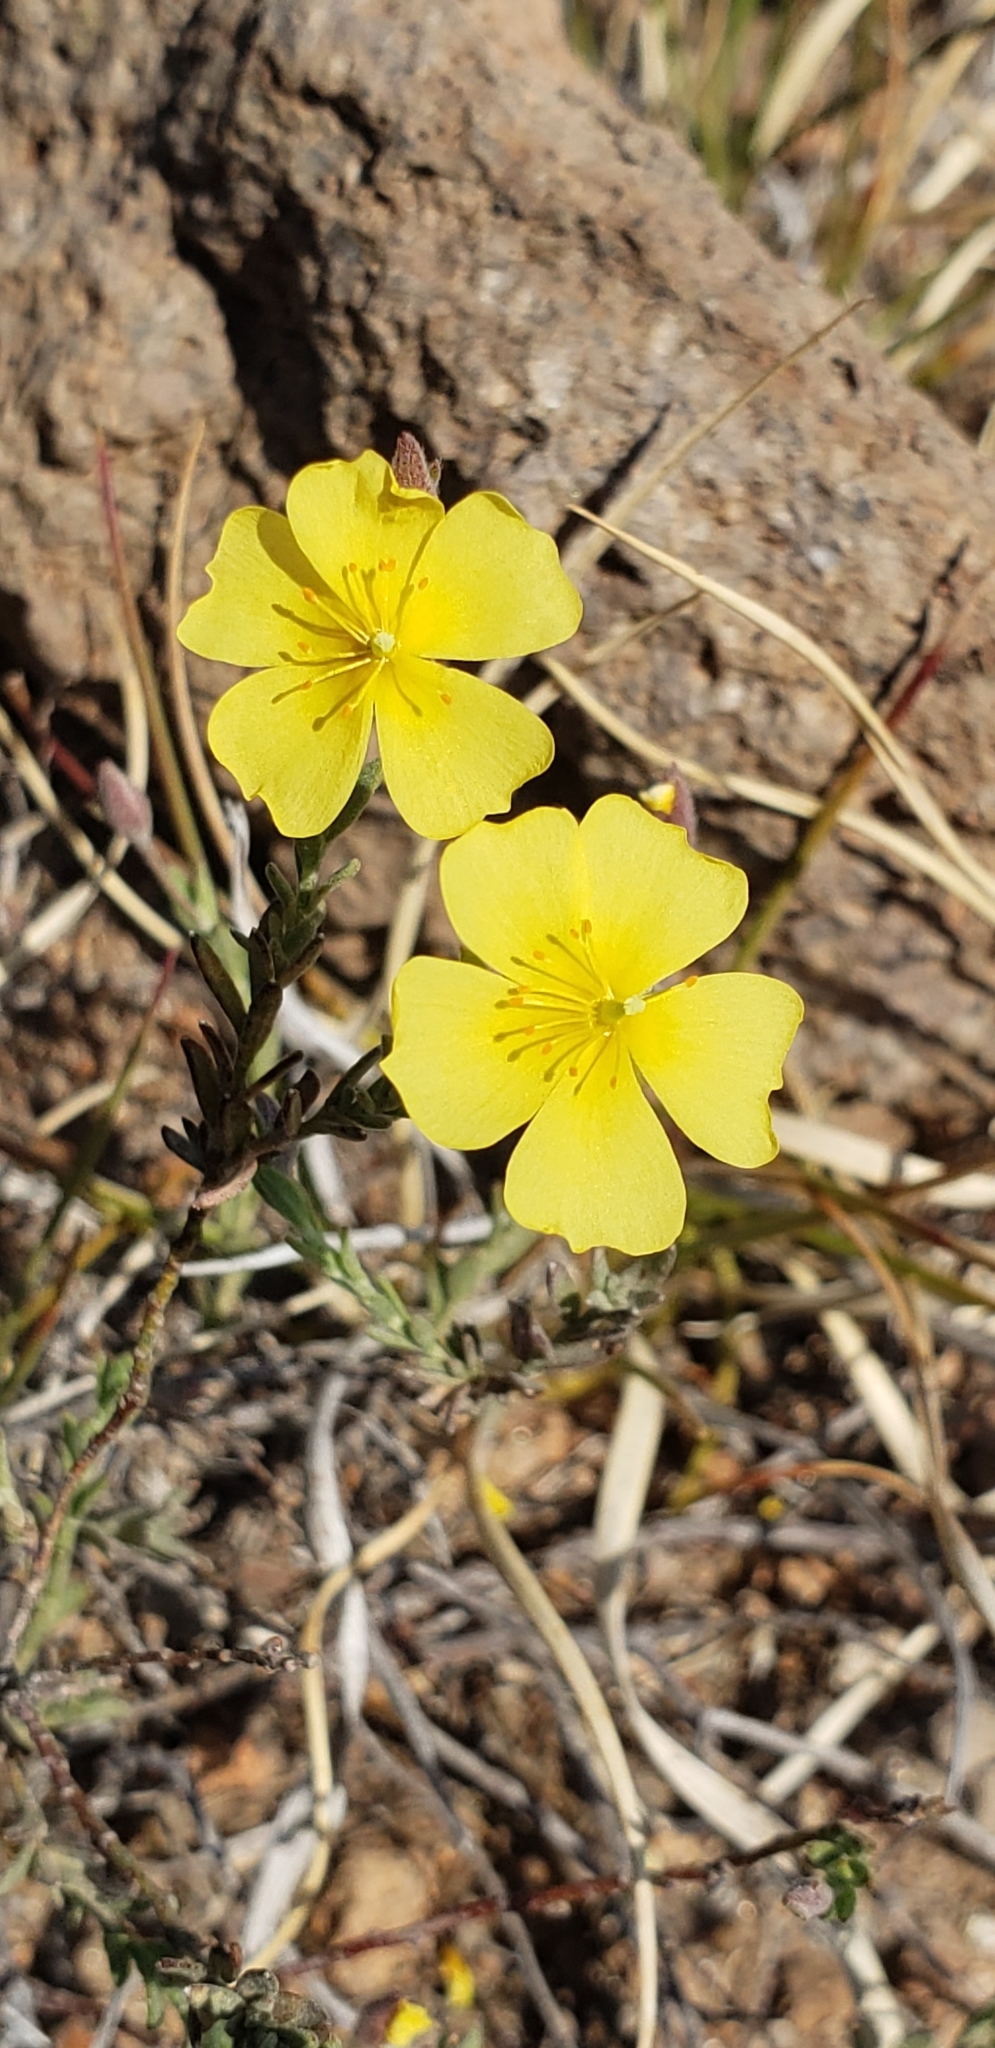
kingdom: Plantae
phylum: Tracheophyta
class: Magnoliopsida
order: Malvales
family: Cistaceae
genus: Crocanthemum
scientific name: Crocanthemum patens
